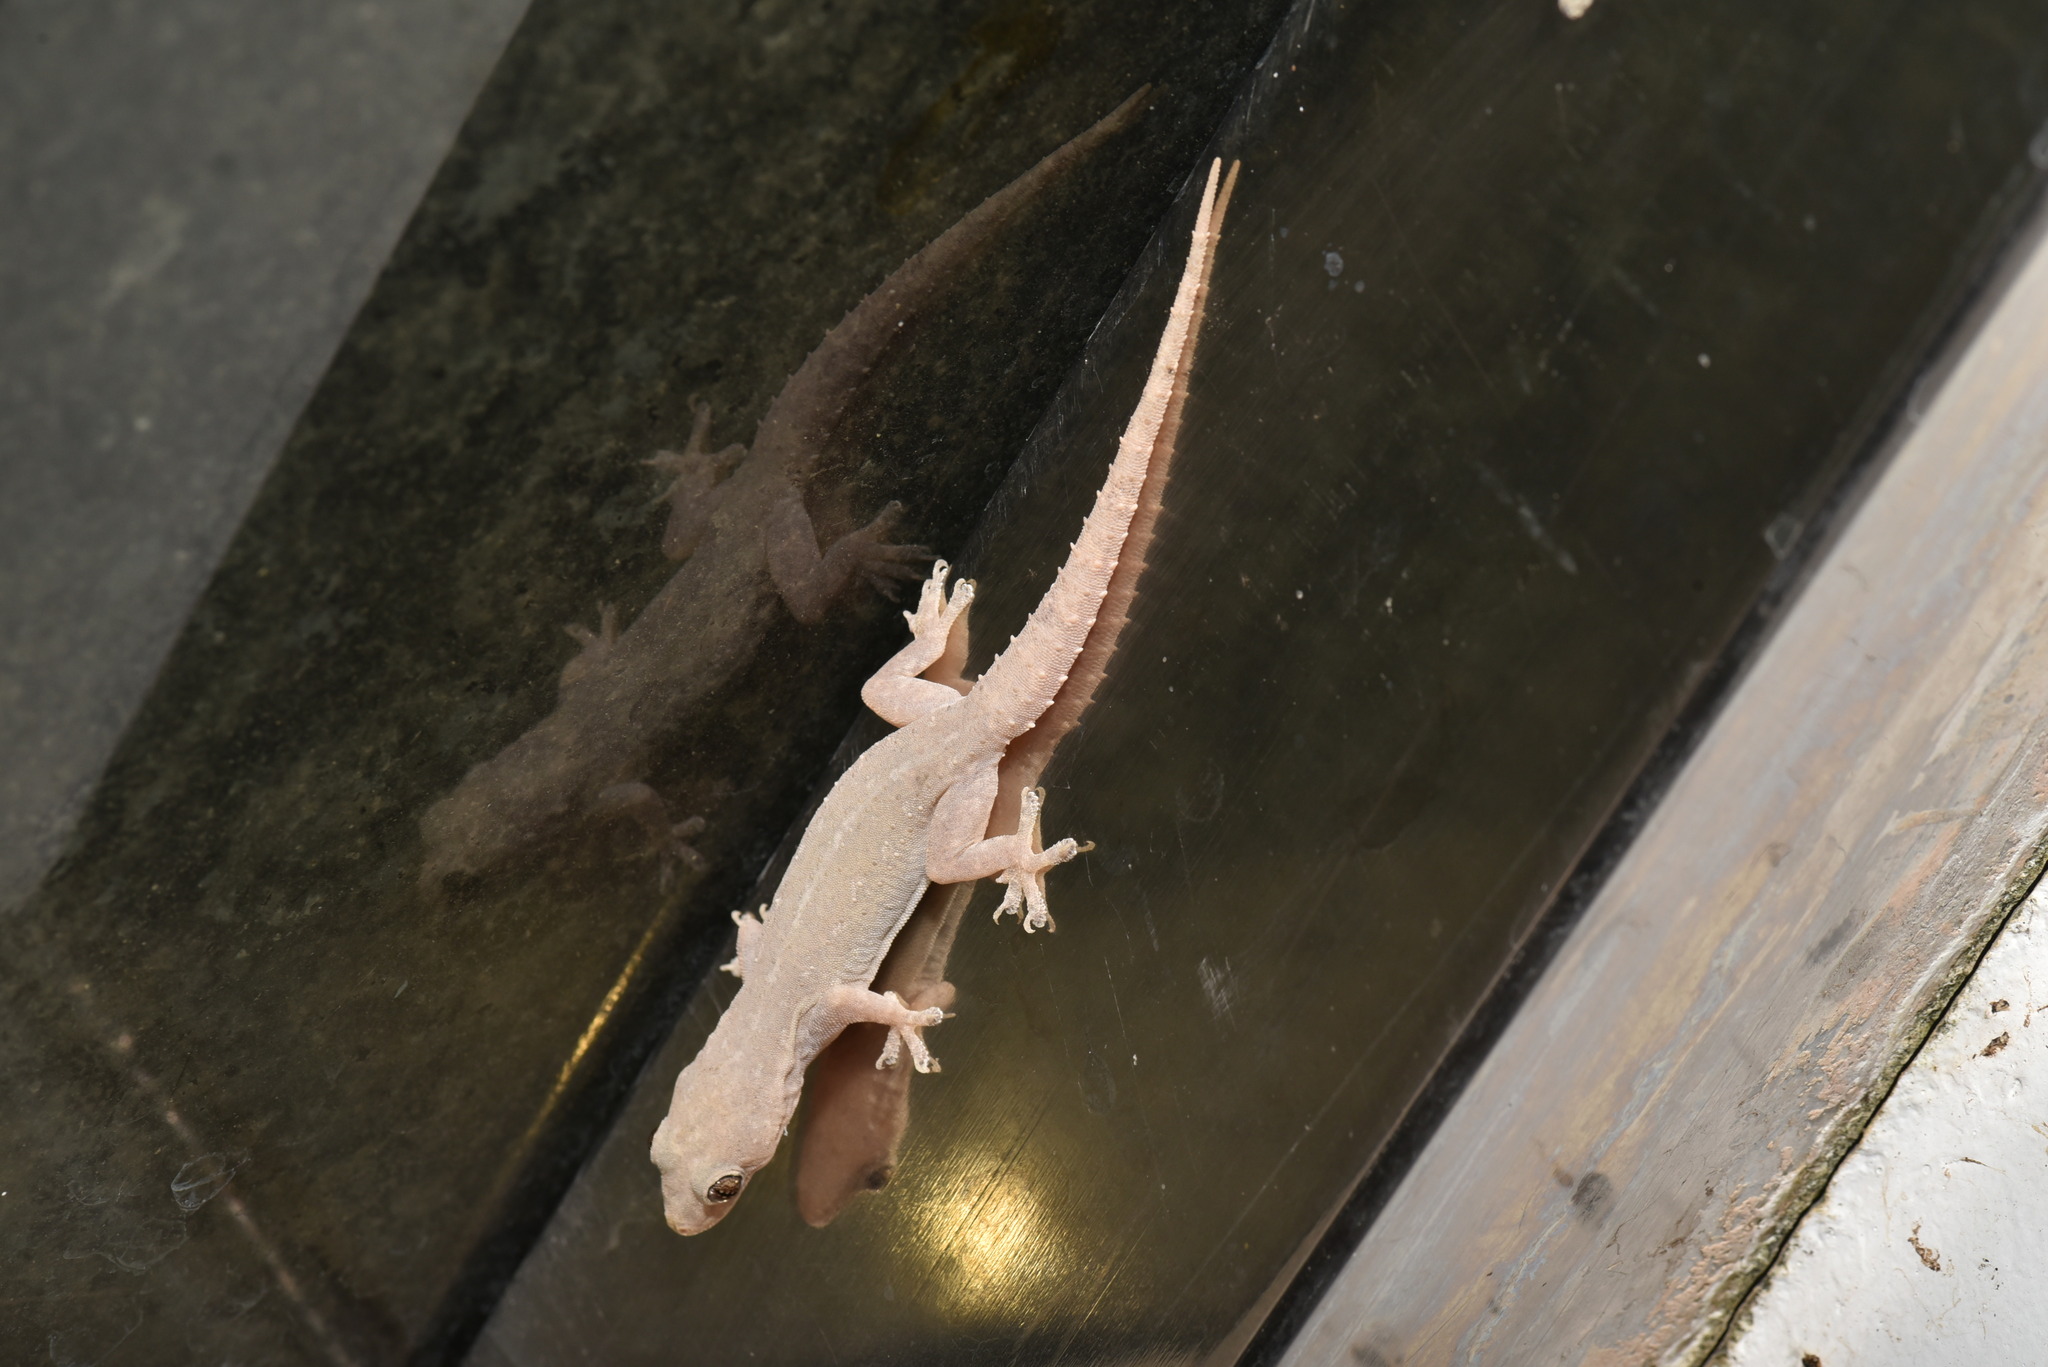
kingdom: Animalia
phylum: Chordata
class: Squamata
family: Gekkonidae
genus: Hemidactylus
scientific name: Hemidactylus frenatus
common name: Common house gecko
